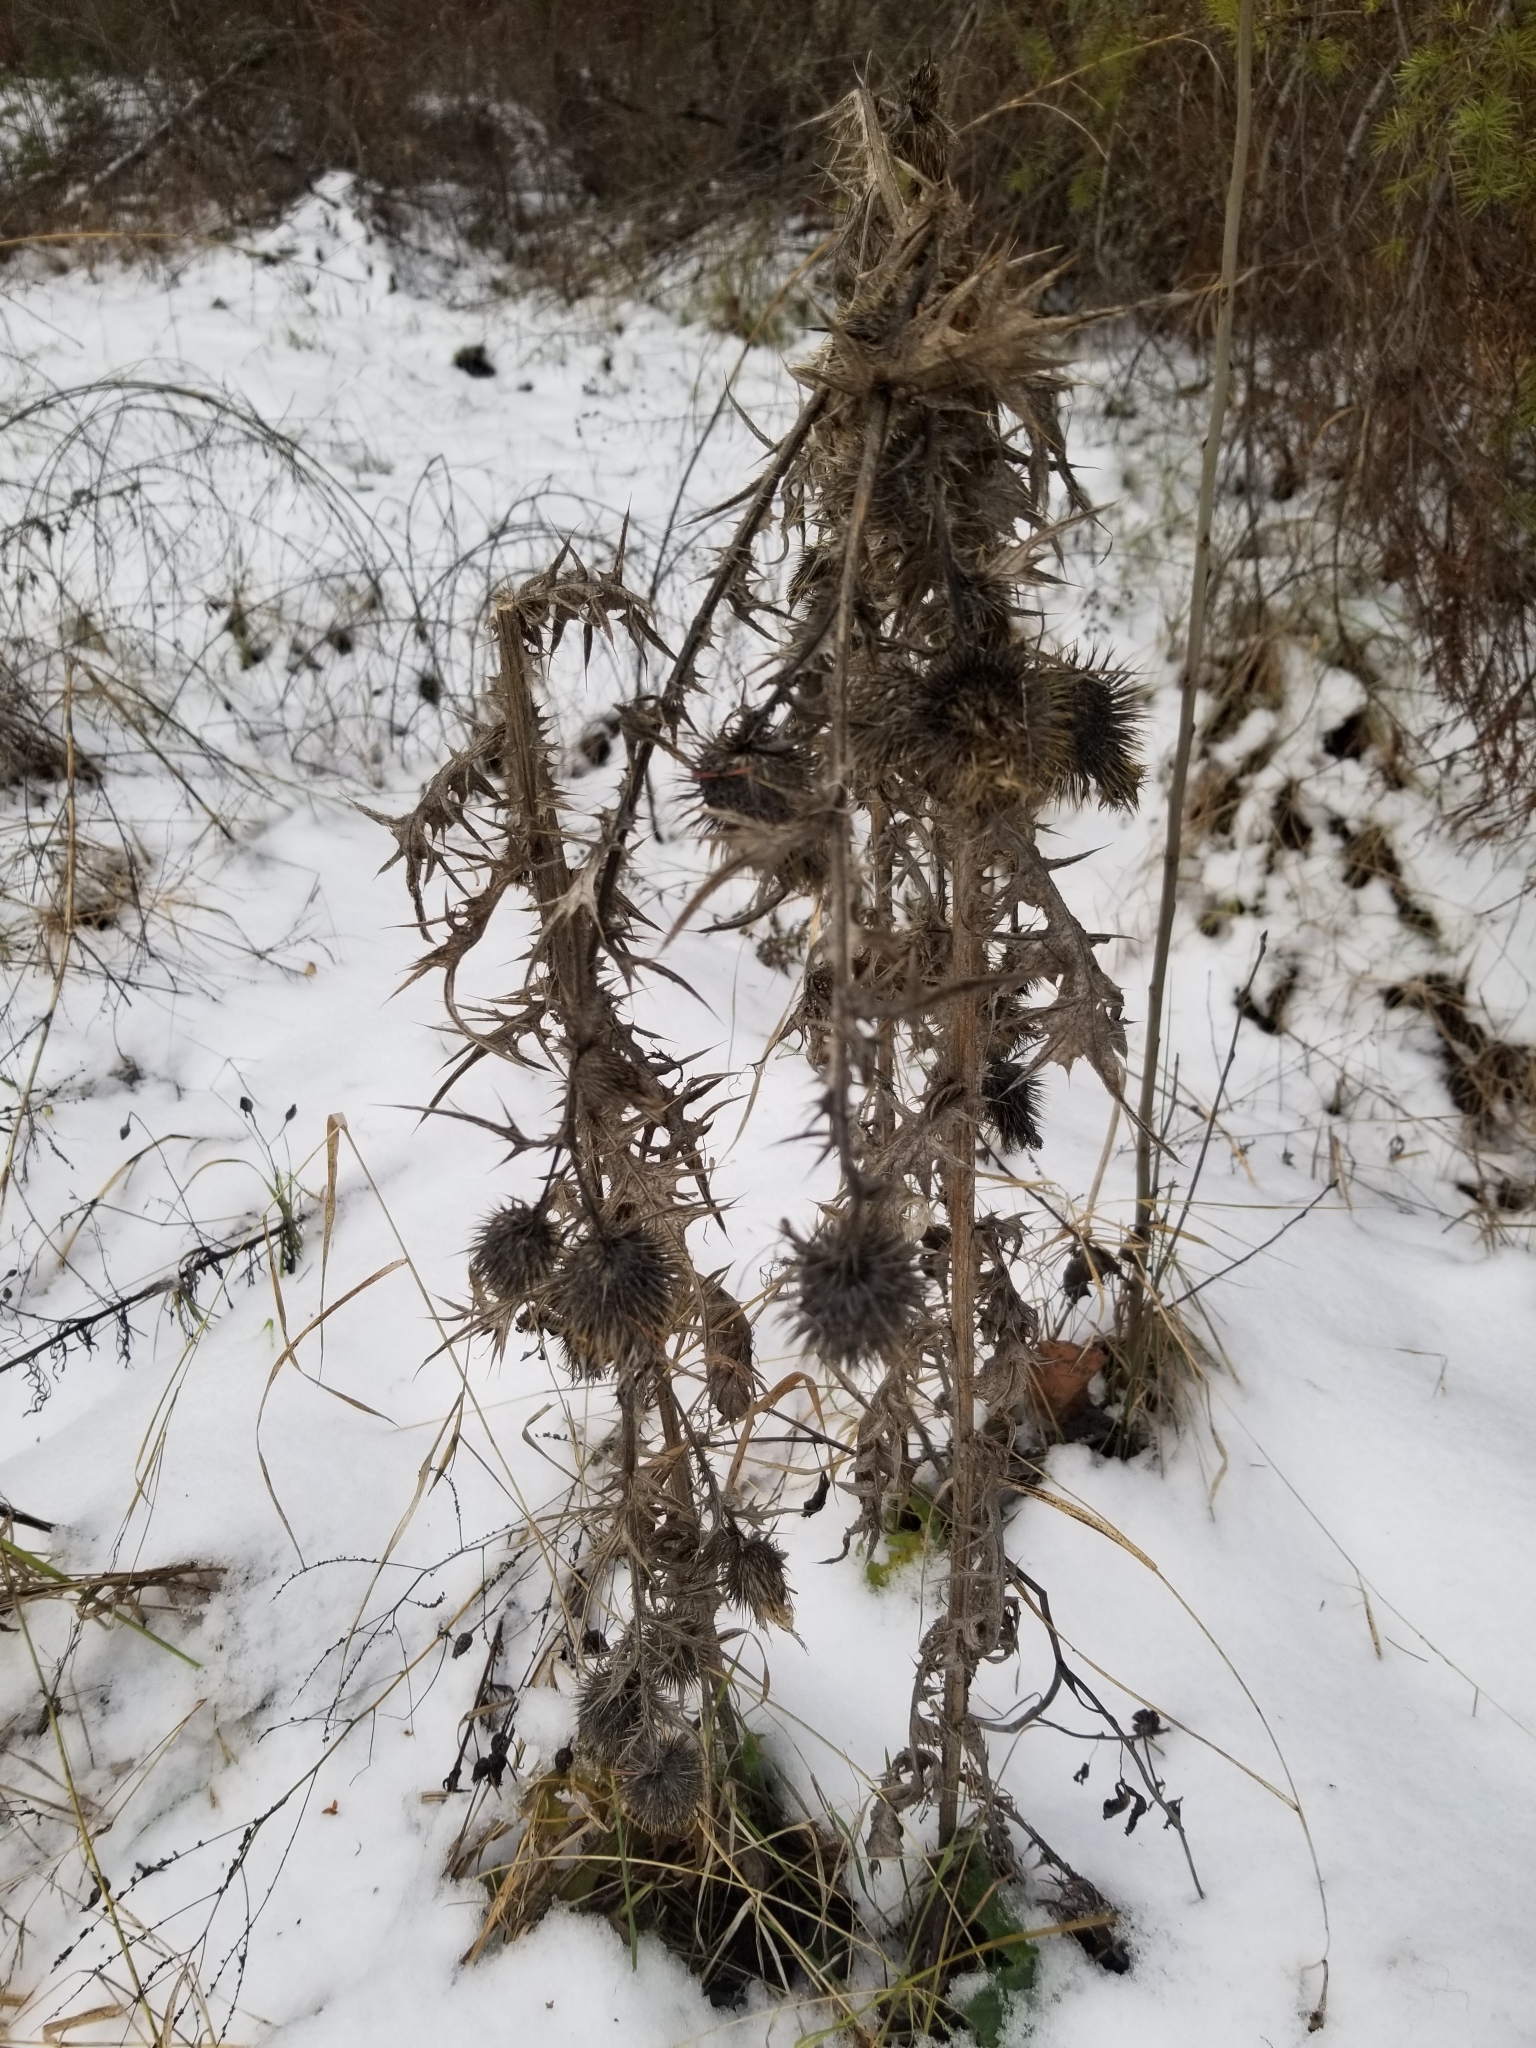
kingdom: Plantae
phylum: Tracheophyta
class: Magnoliopsida
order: Asterales
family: Asteraceae
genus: Cirsium
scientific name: Cirsium vulgare
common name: Bull thistle
